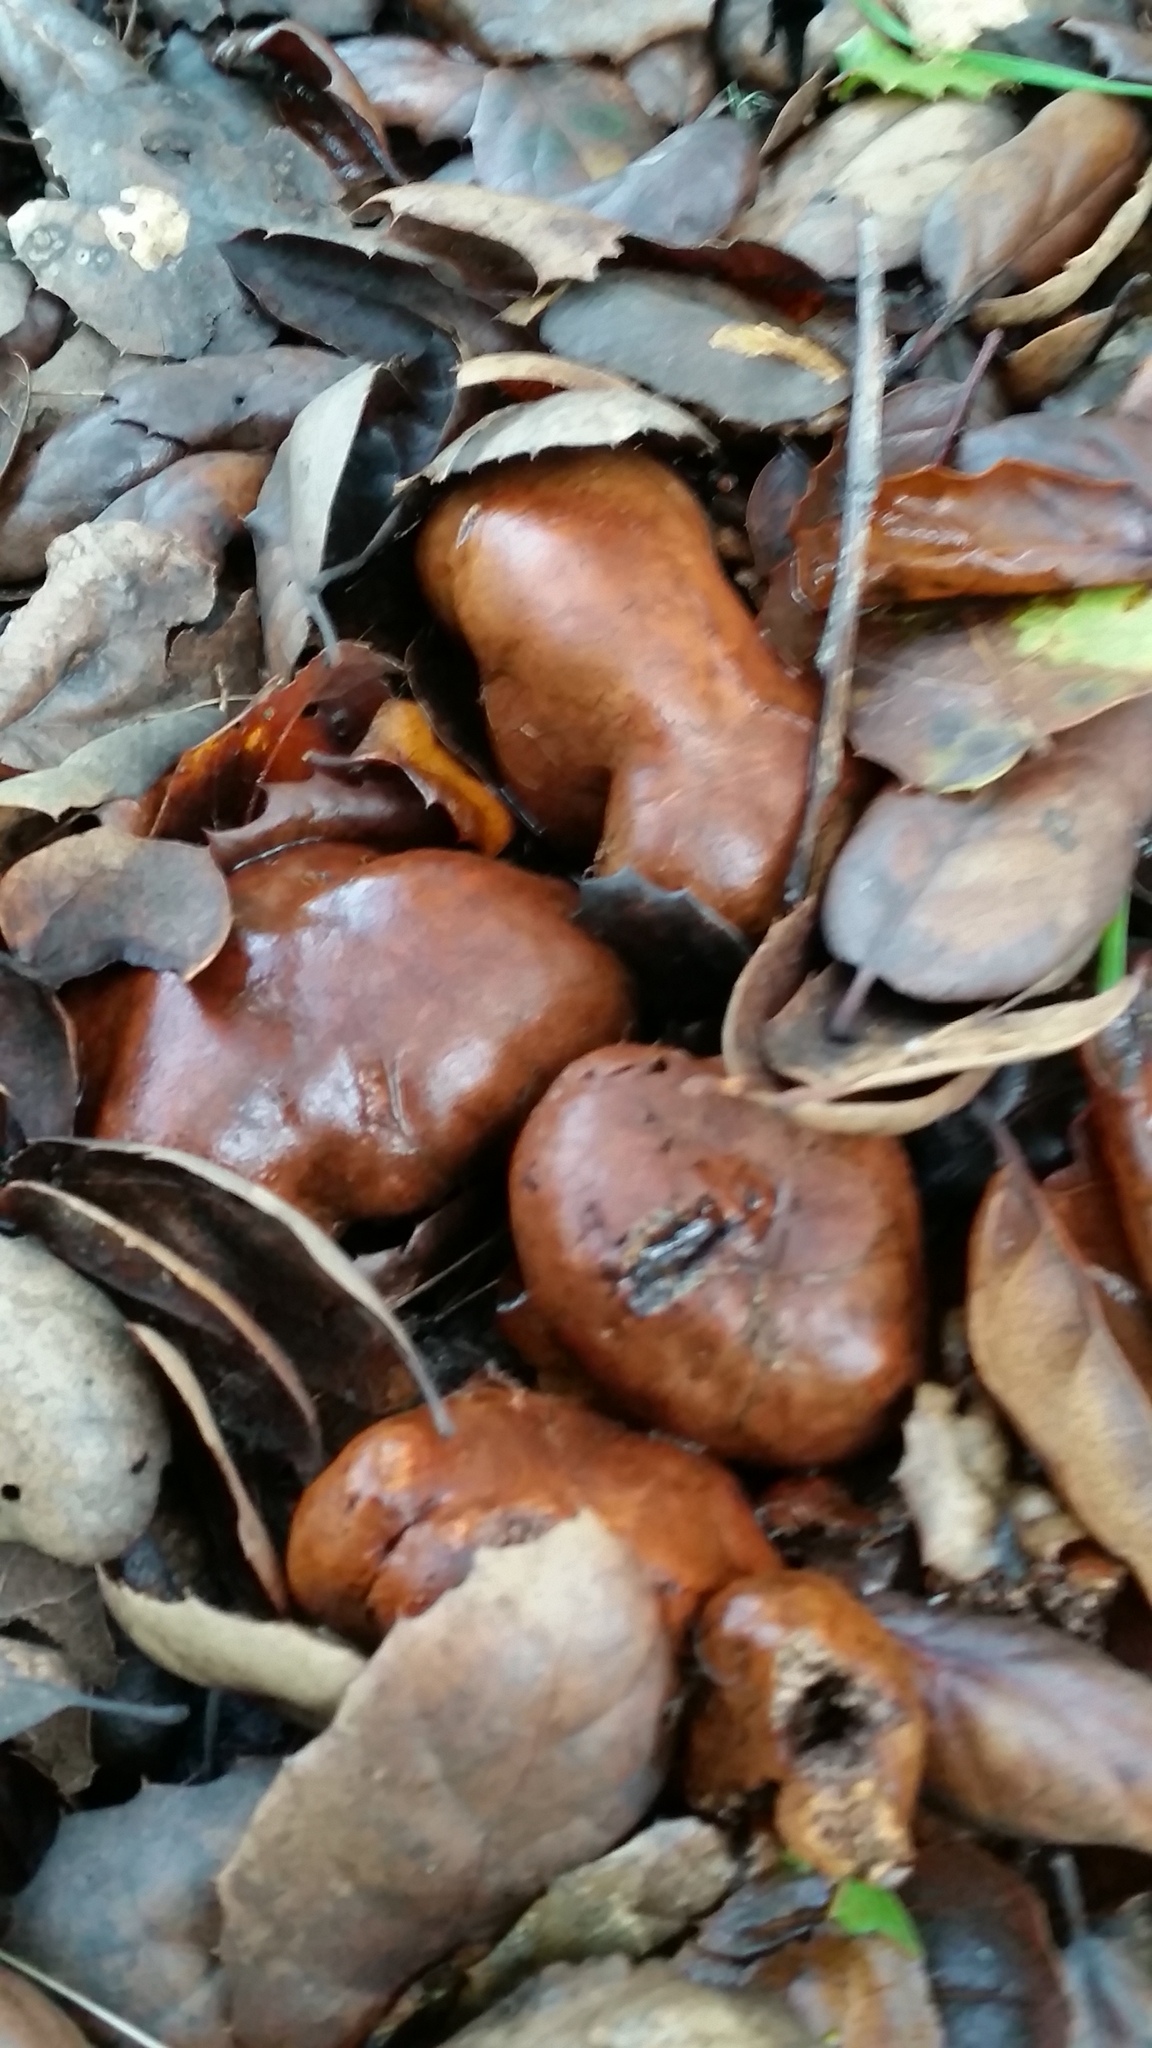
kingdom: Fungi
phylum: Basidiomycota
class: Agaricomycetes
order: Russulales
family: Russulaceae
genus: Lactarius
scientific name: Lactarius rufulus
